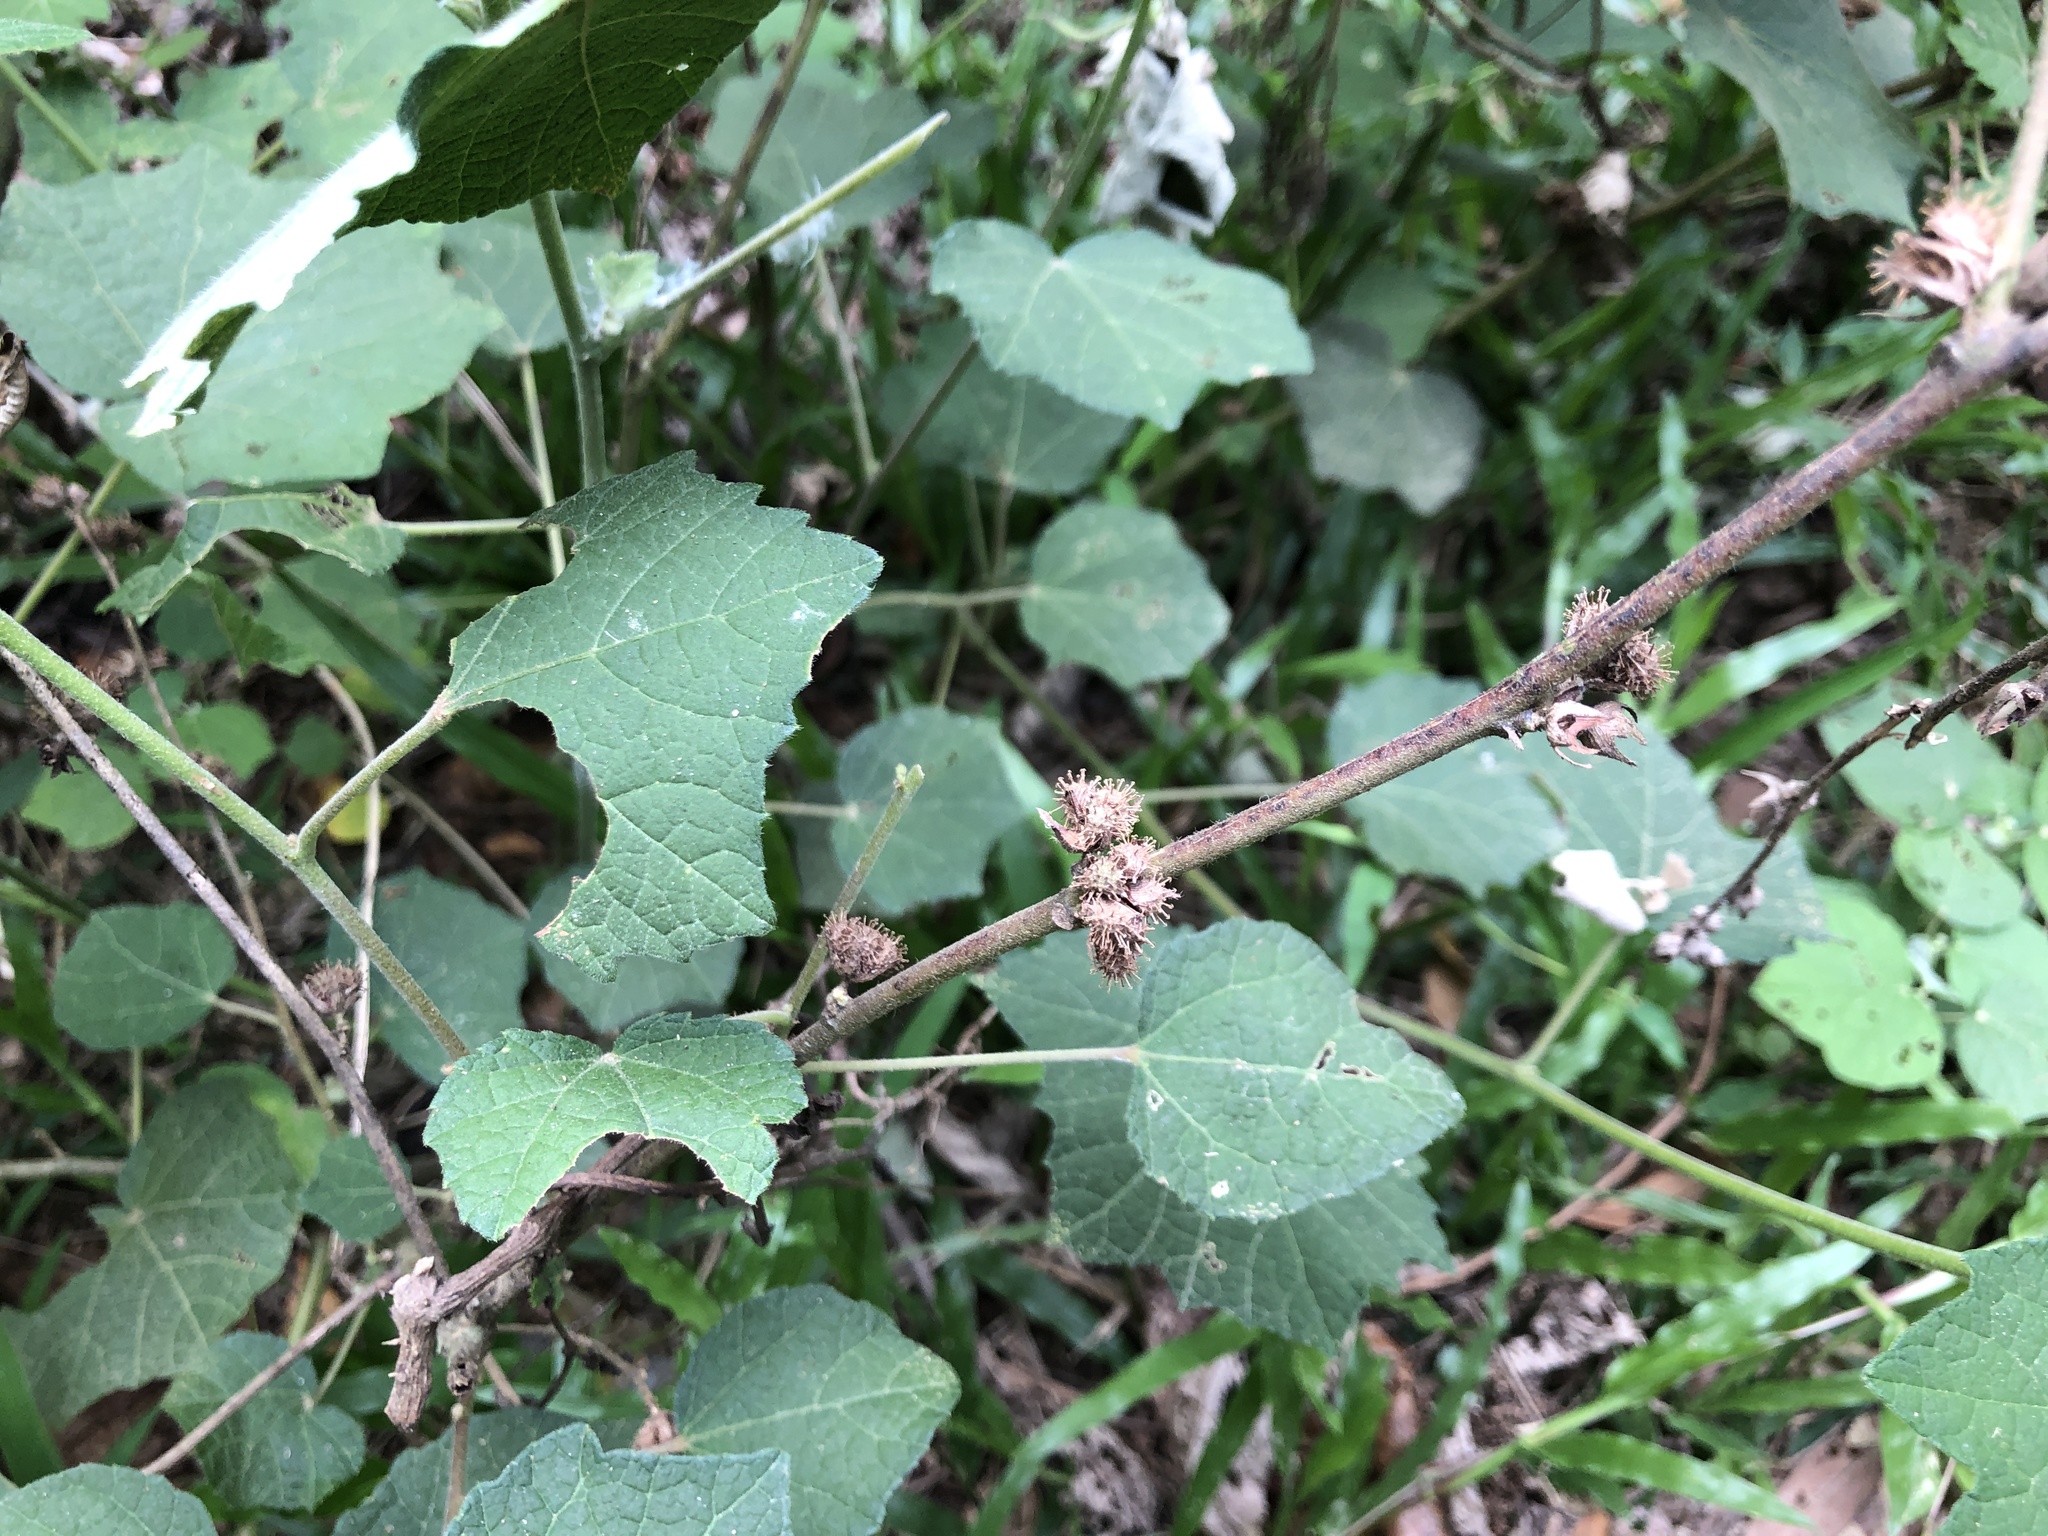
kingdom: Plantae
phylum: Tracheophyta
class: Magnoliopsida
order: Malvales
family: Malvaceae
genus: Urena
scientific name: Urena lobata
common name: Caesarweed
